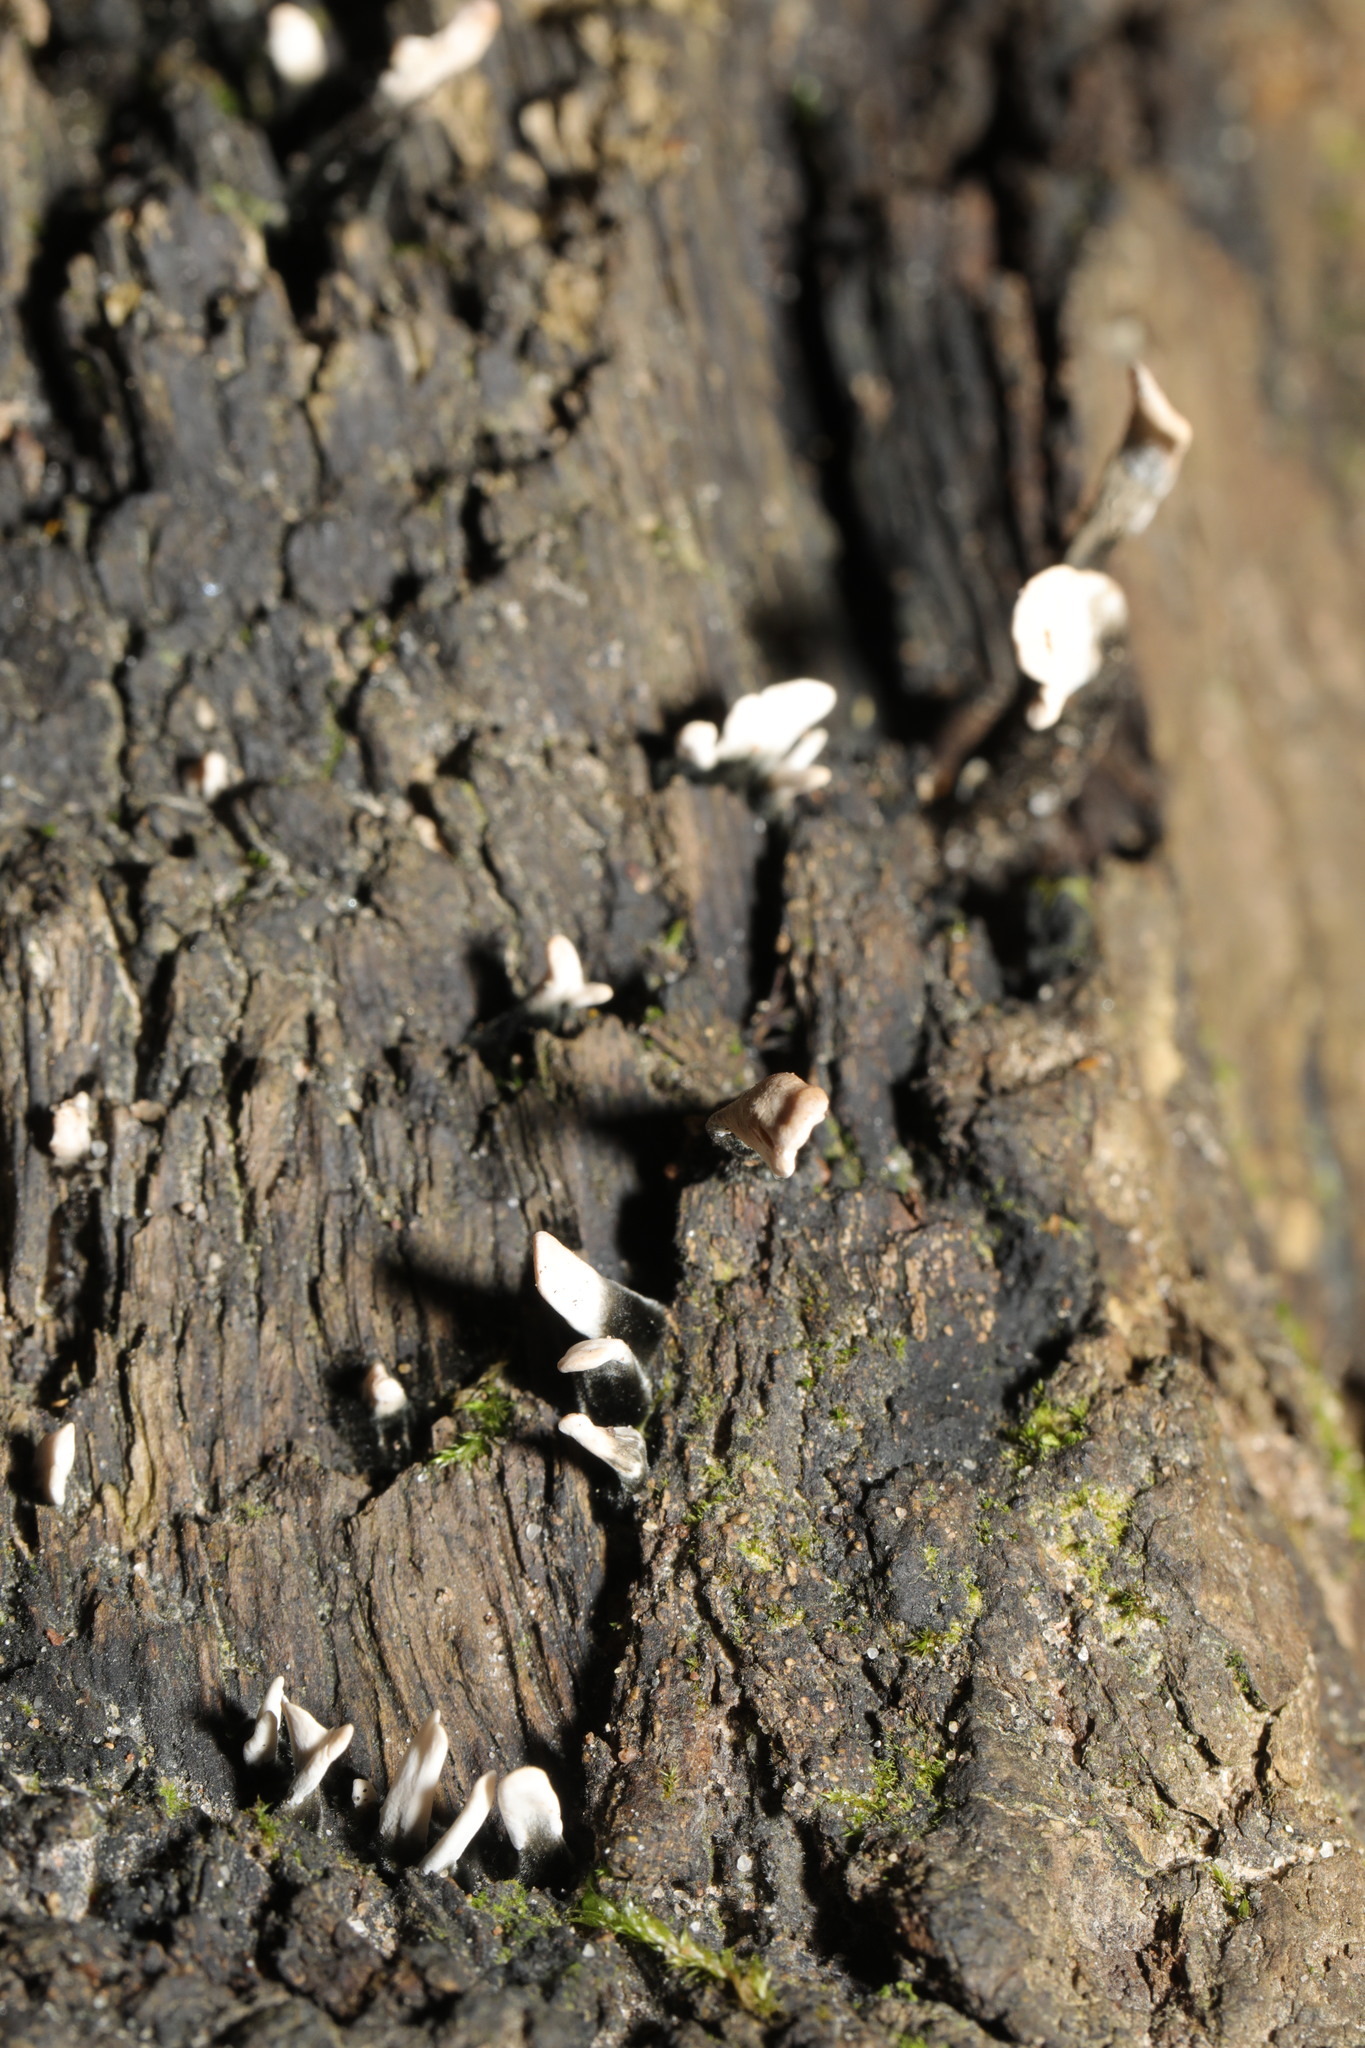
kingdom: Fungi
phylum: Ascomycota
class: Sordariomycetes
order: Xylariales
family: Xylariaceae
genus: Xylaria
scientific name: Xylaria hypoxylon
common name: Candle-snuff fungus
